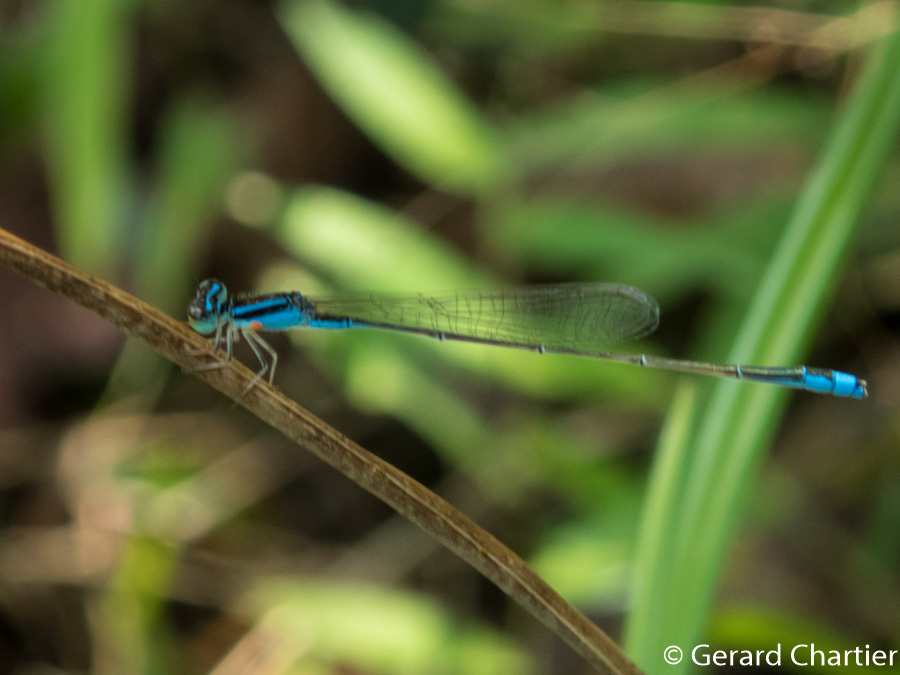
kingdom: Animalia
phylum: Arthropoda
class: Insecta
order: Odonata
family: Coenagrionidae
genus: Aciagrion
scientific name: Aciagrion borneense
